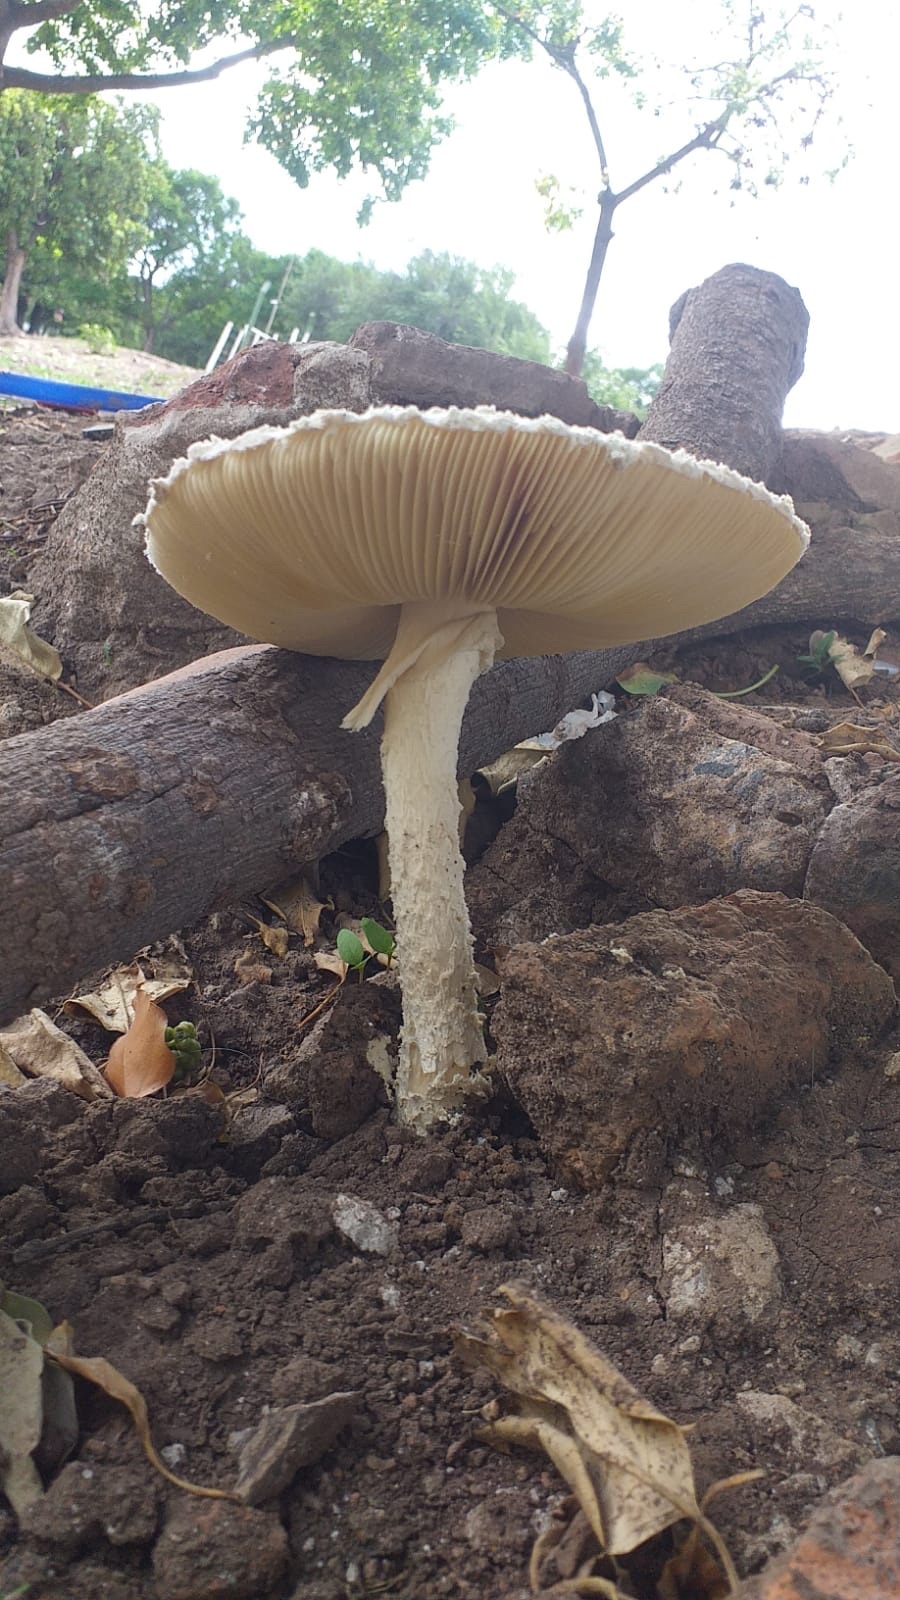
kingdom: Fungi
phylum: Basidiomycota
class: Agaricomycetes
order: Agaricales
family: Amanitaceae
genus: Aspidella
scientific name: Aspidella foetens
